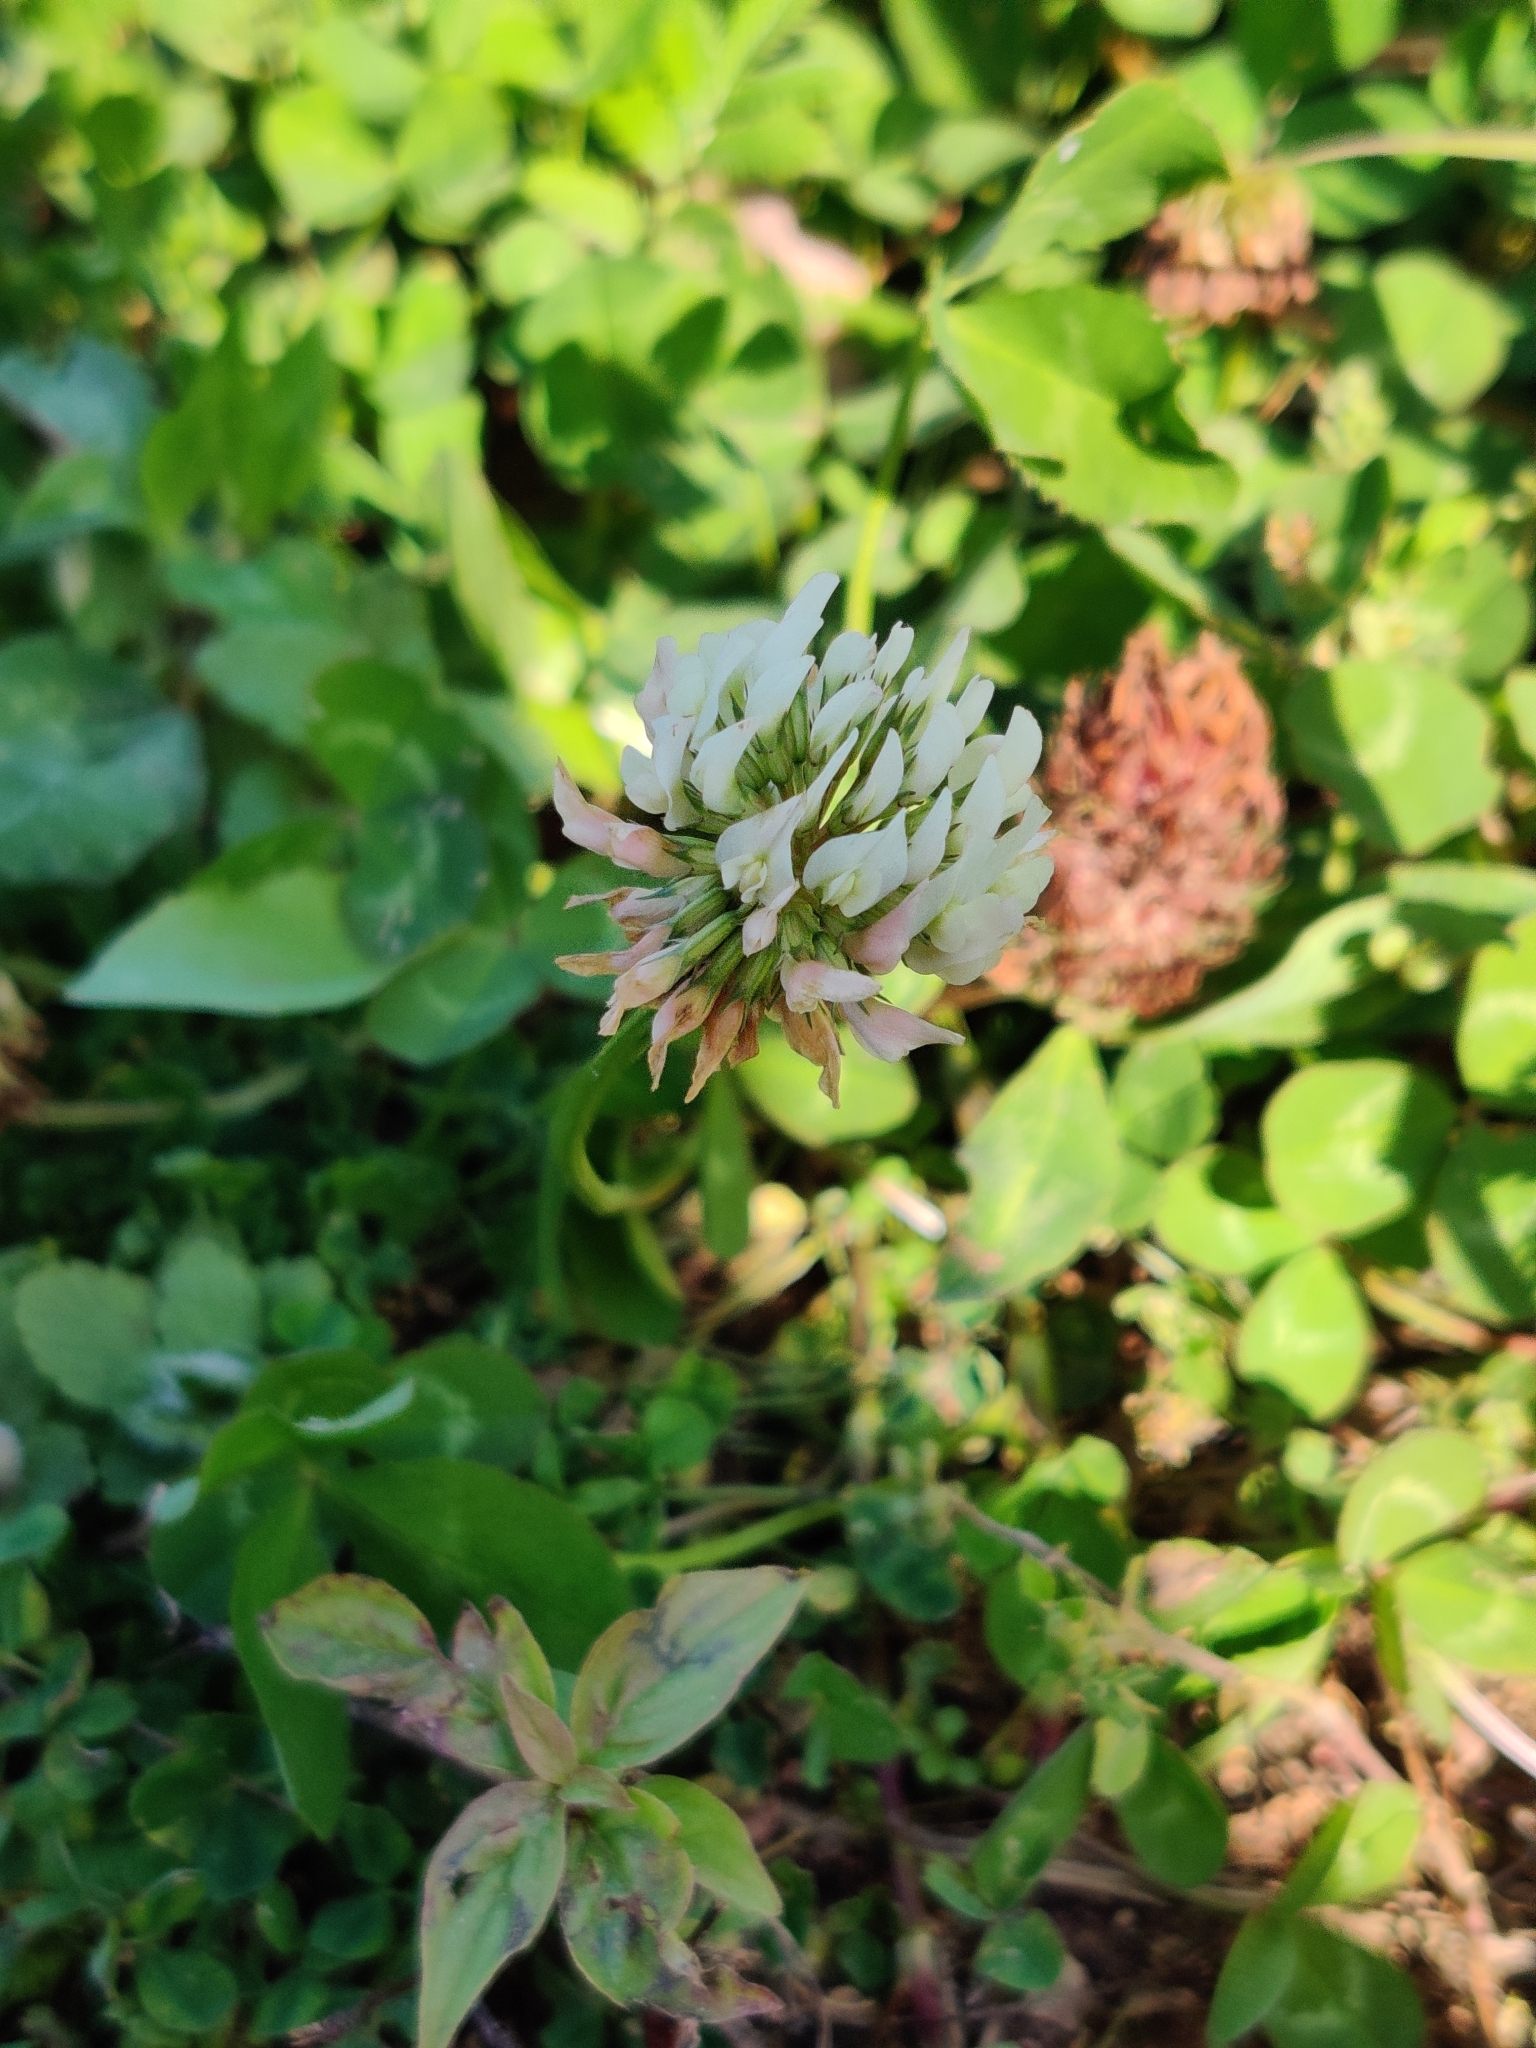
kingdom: Plantae
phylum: Tracheophyta
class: Magnoliopsida
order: Fabales
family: Fabaceae
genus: Trifolium
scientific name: Trifolium repens
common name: White clover
